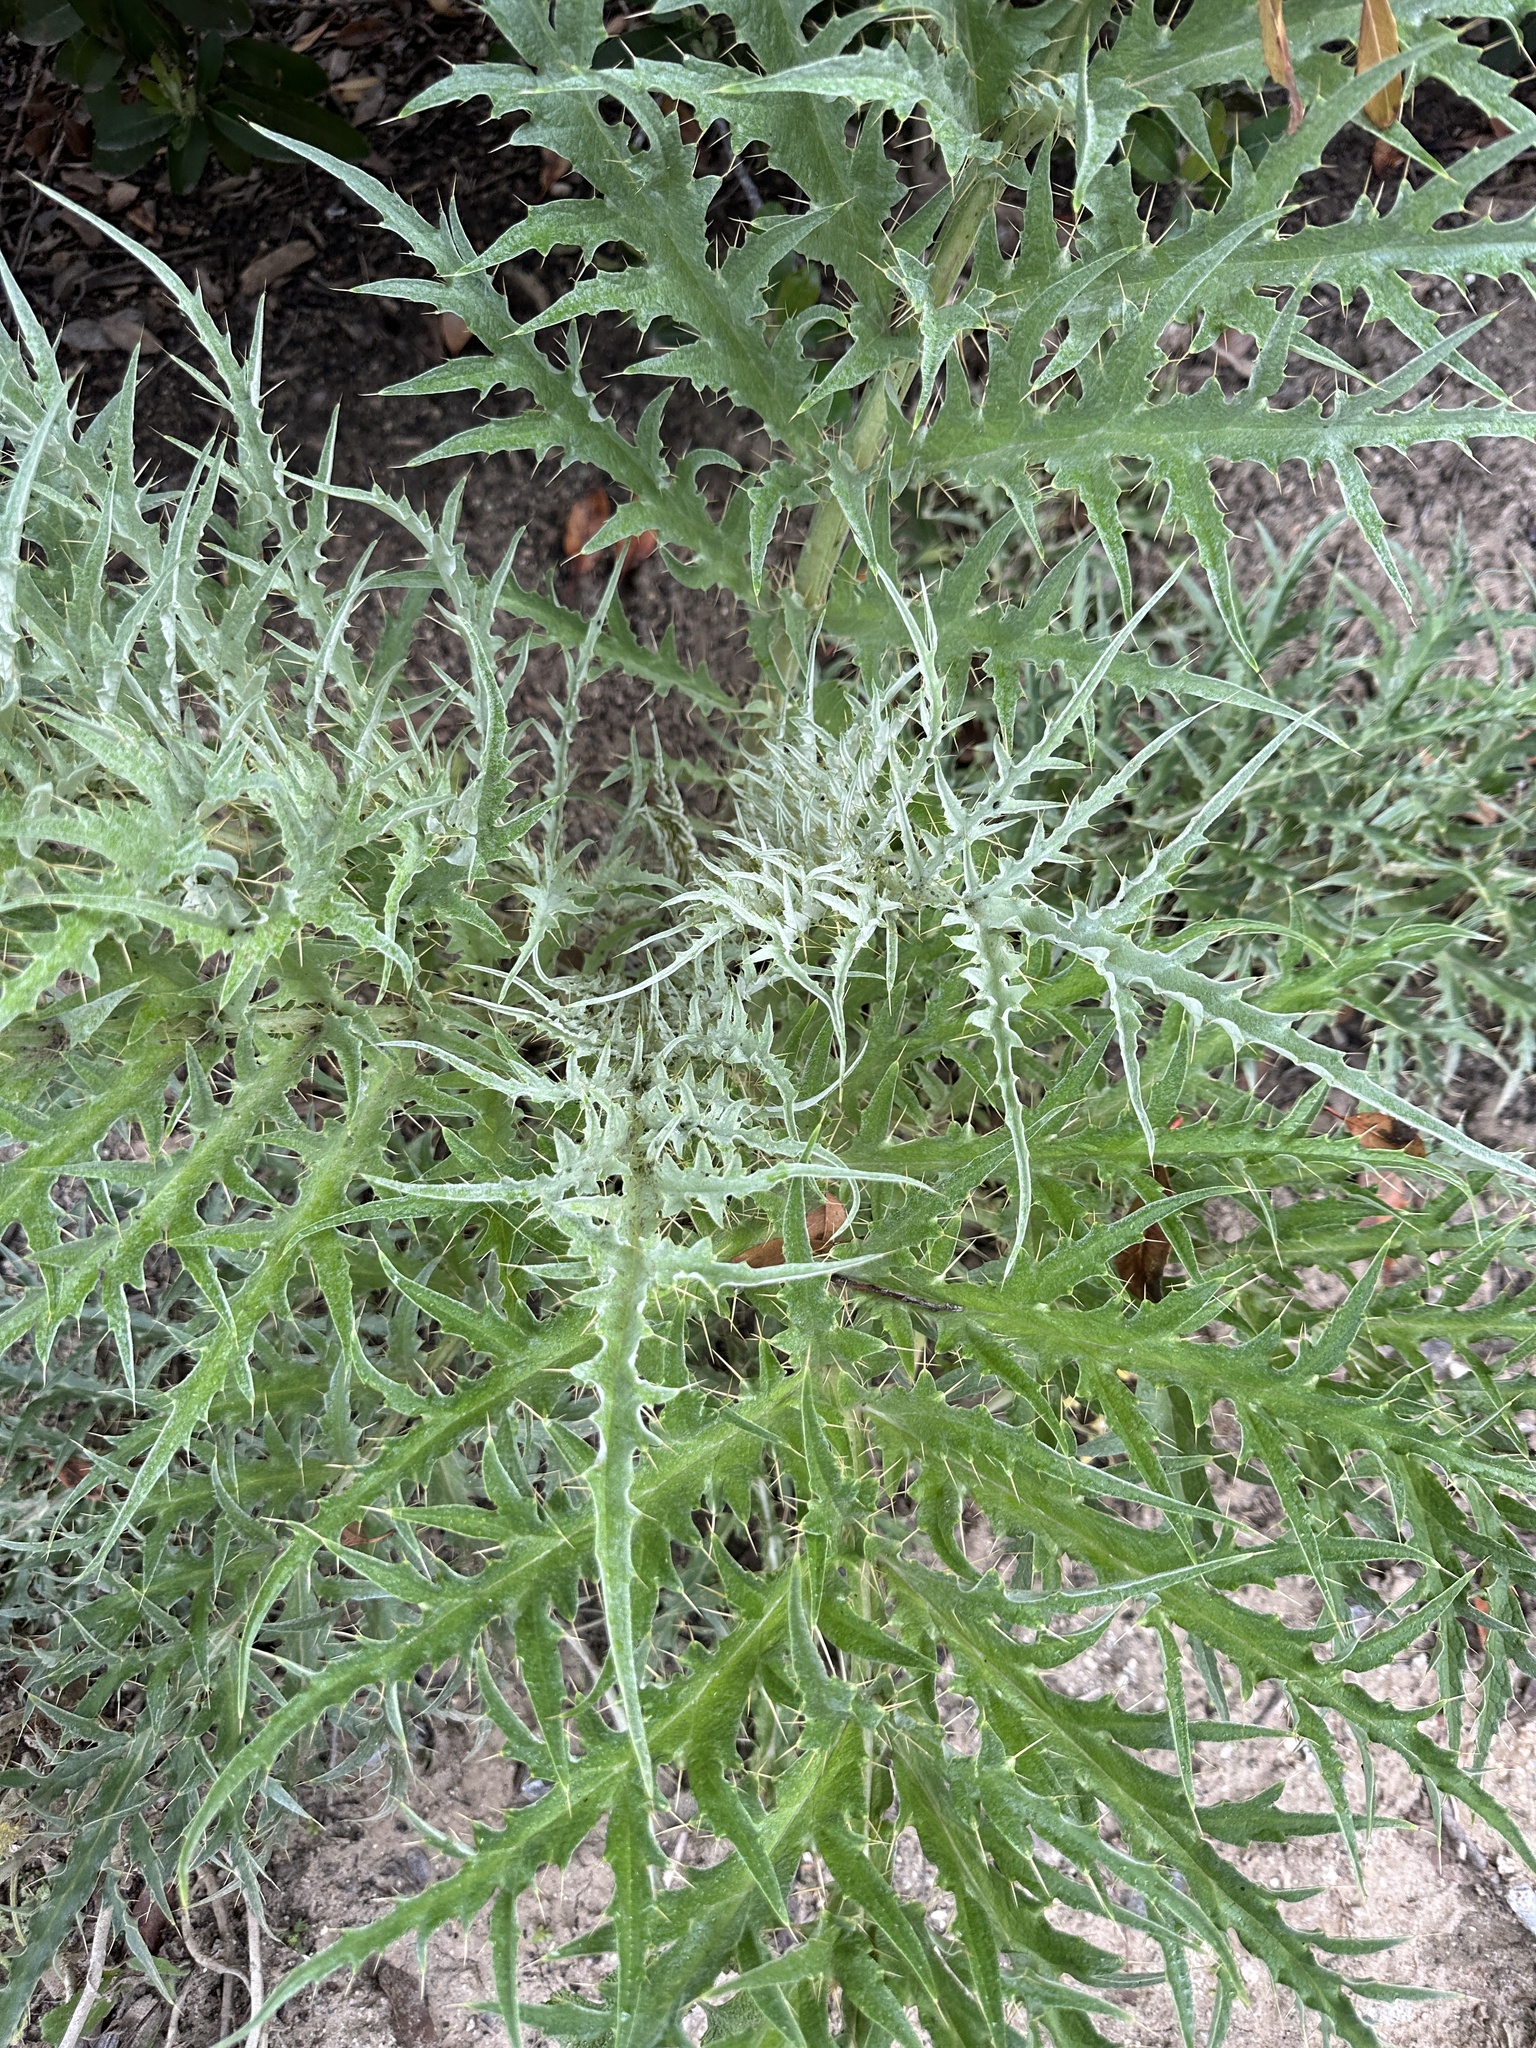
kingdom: Plantae
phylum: Tracheophyta
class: Magnoliopsida
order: Asterales
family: Asteraceae
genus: Cynara
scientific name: Cynara cardunculus
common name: Globe artichoke
